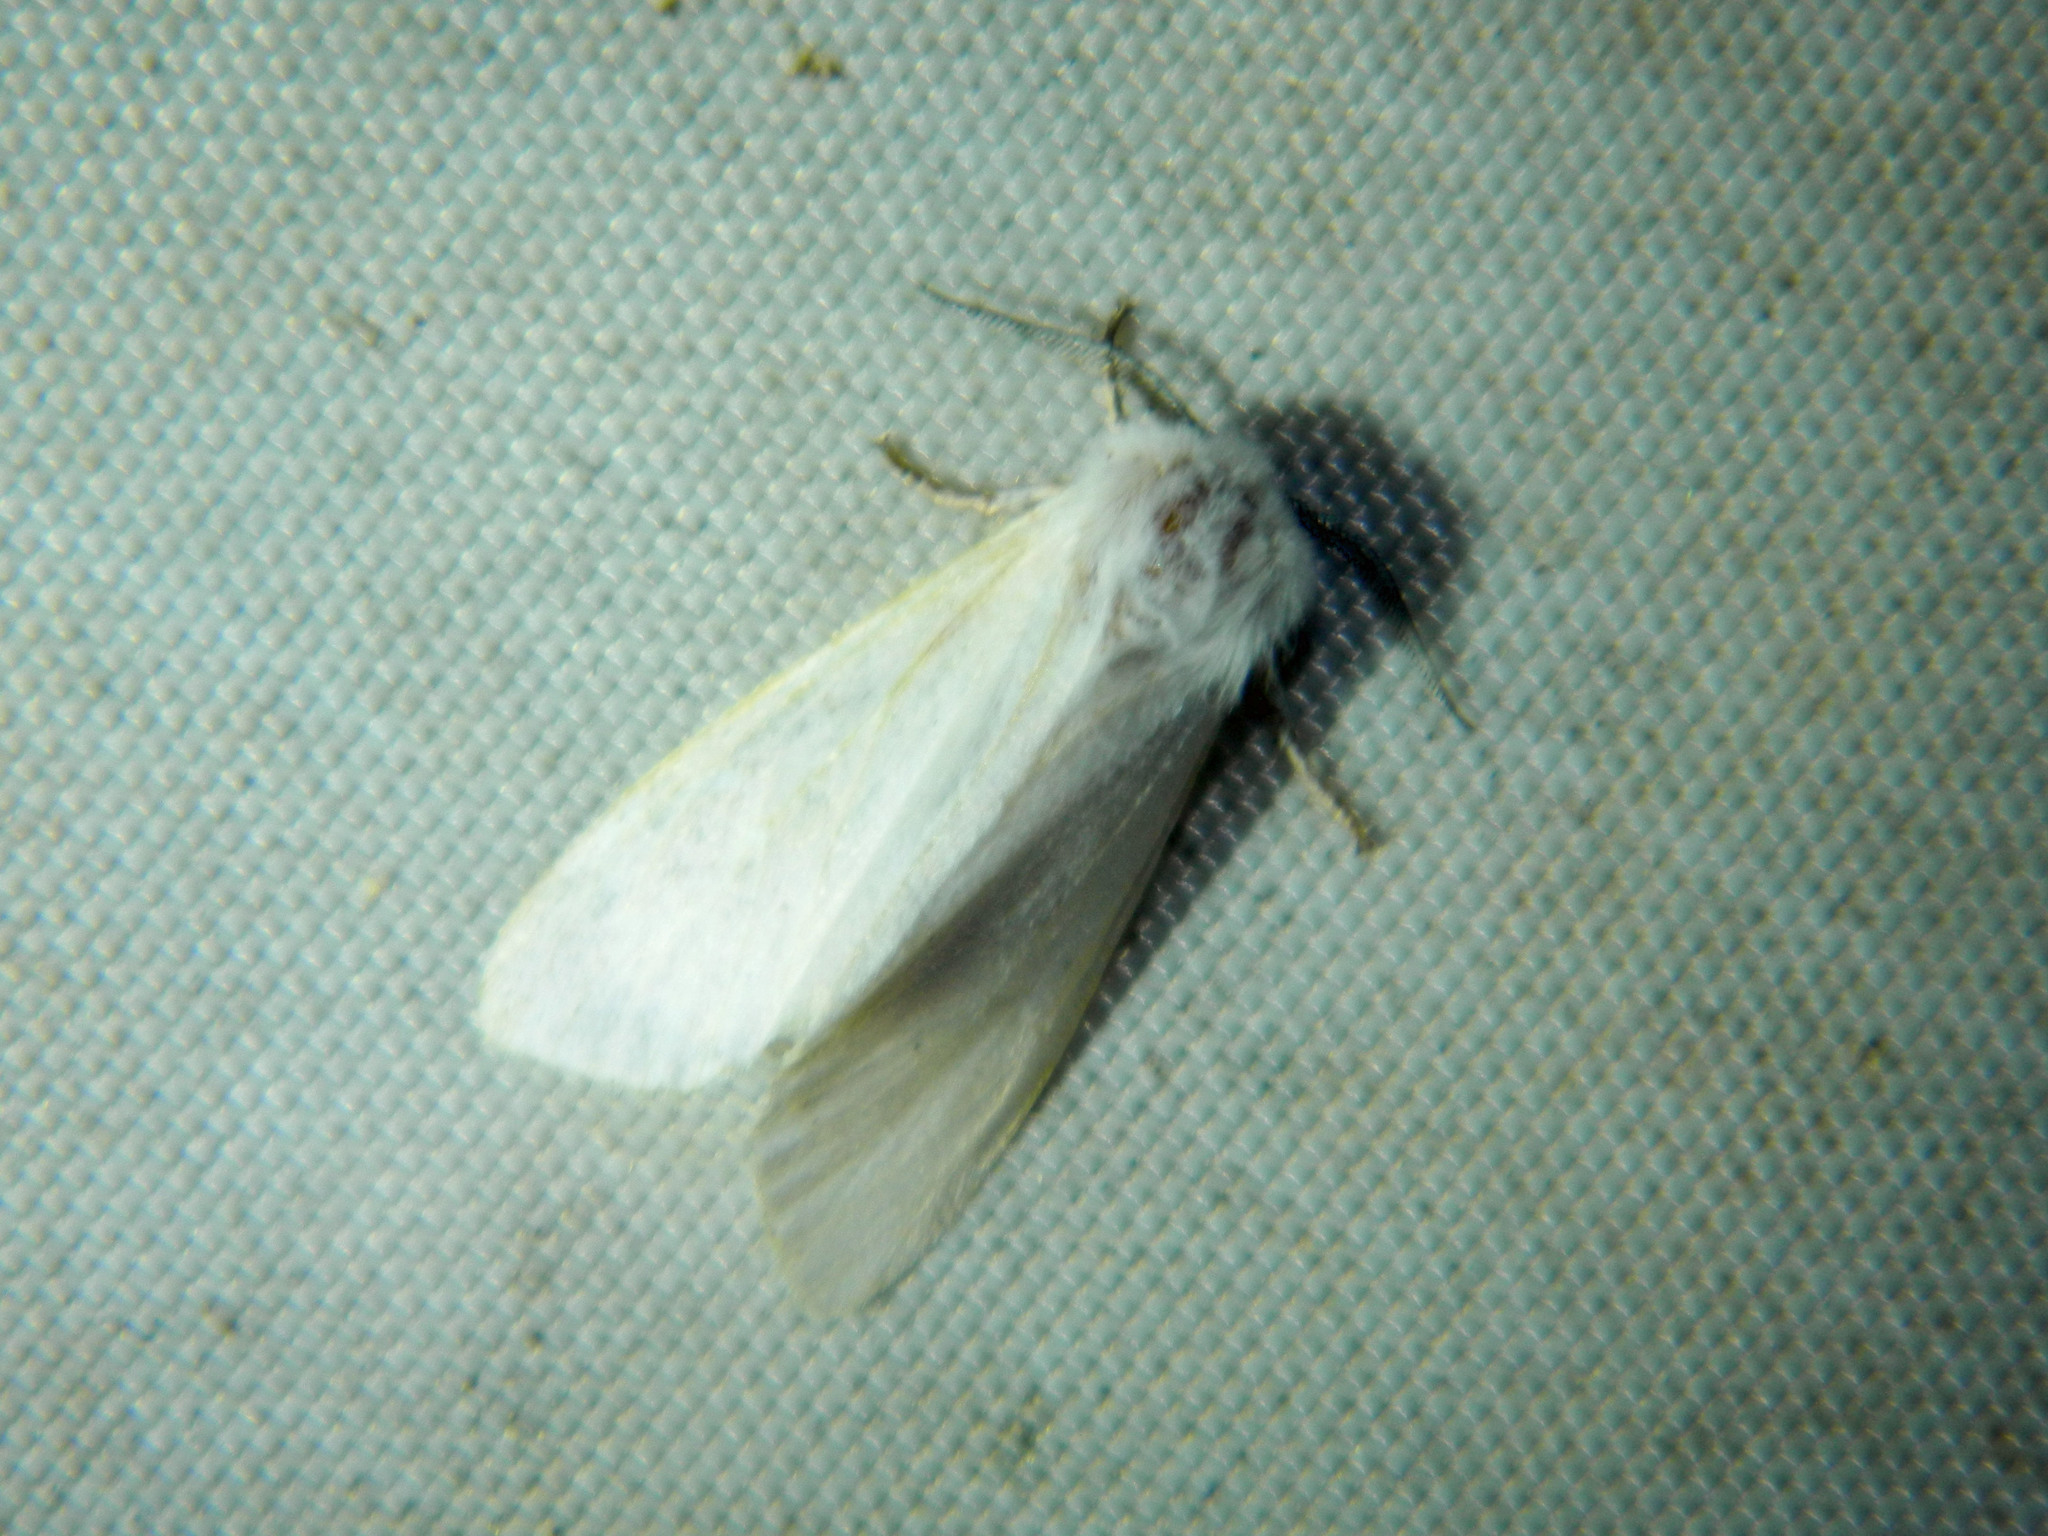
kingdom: Animalia
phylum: Arthropoda
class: Insecta
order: Lepidoptera
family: Erebidae
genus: Hyphantria
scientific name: Hyphantria cunea
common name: American white moth
